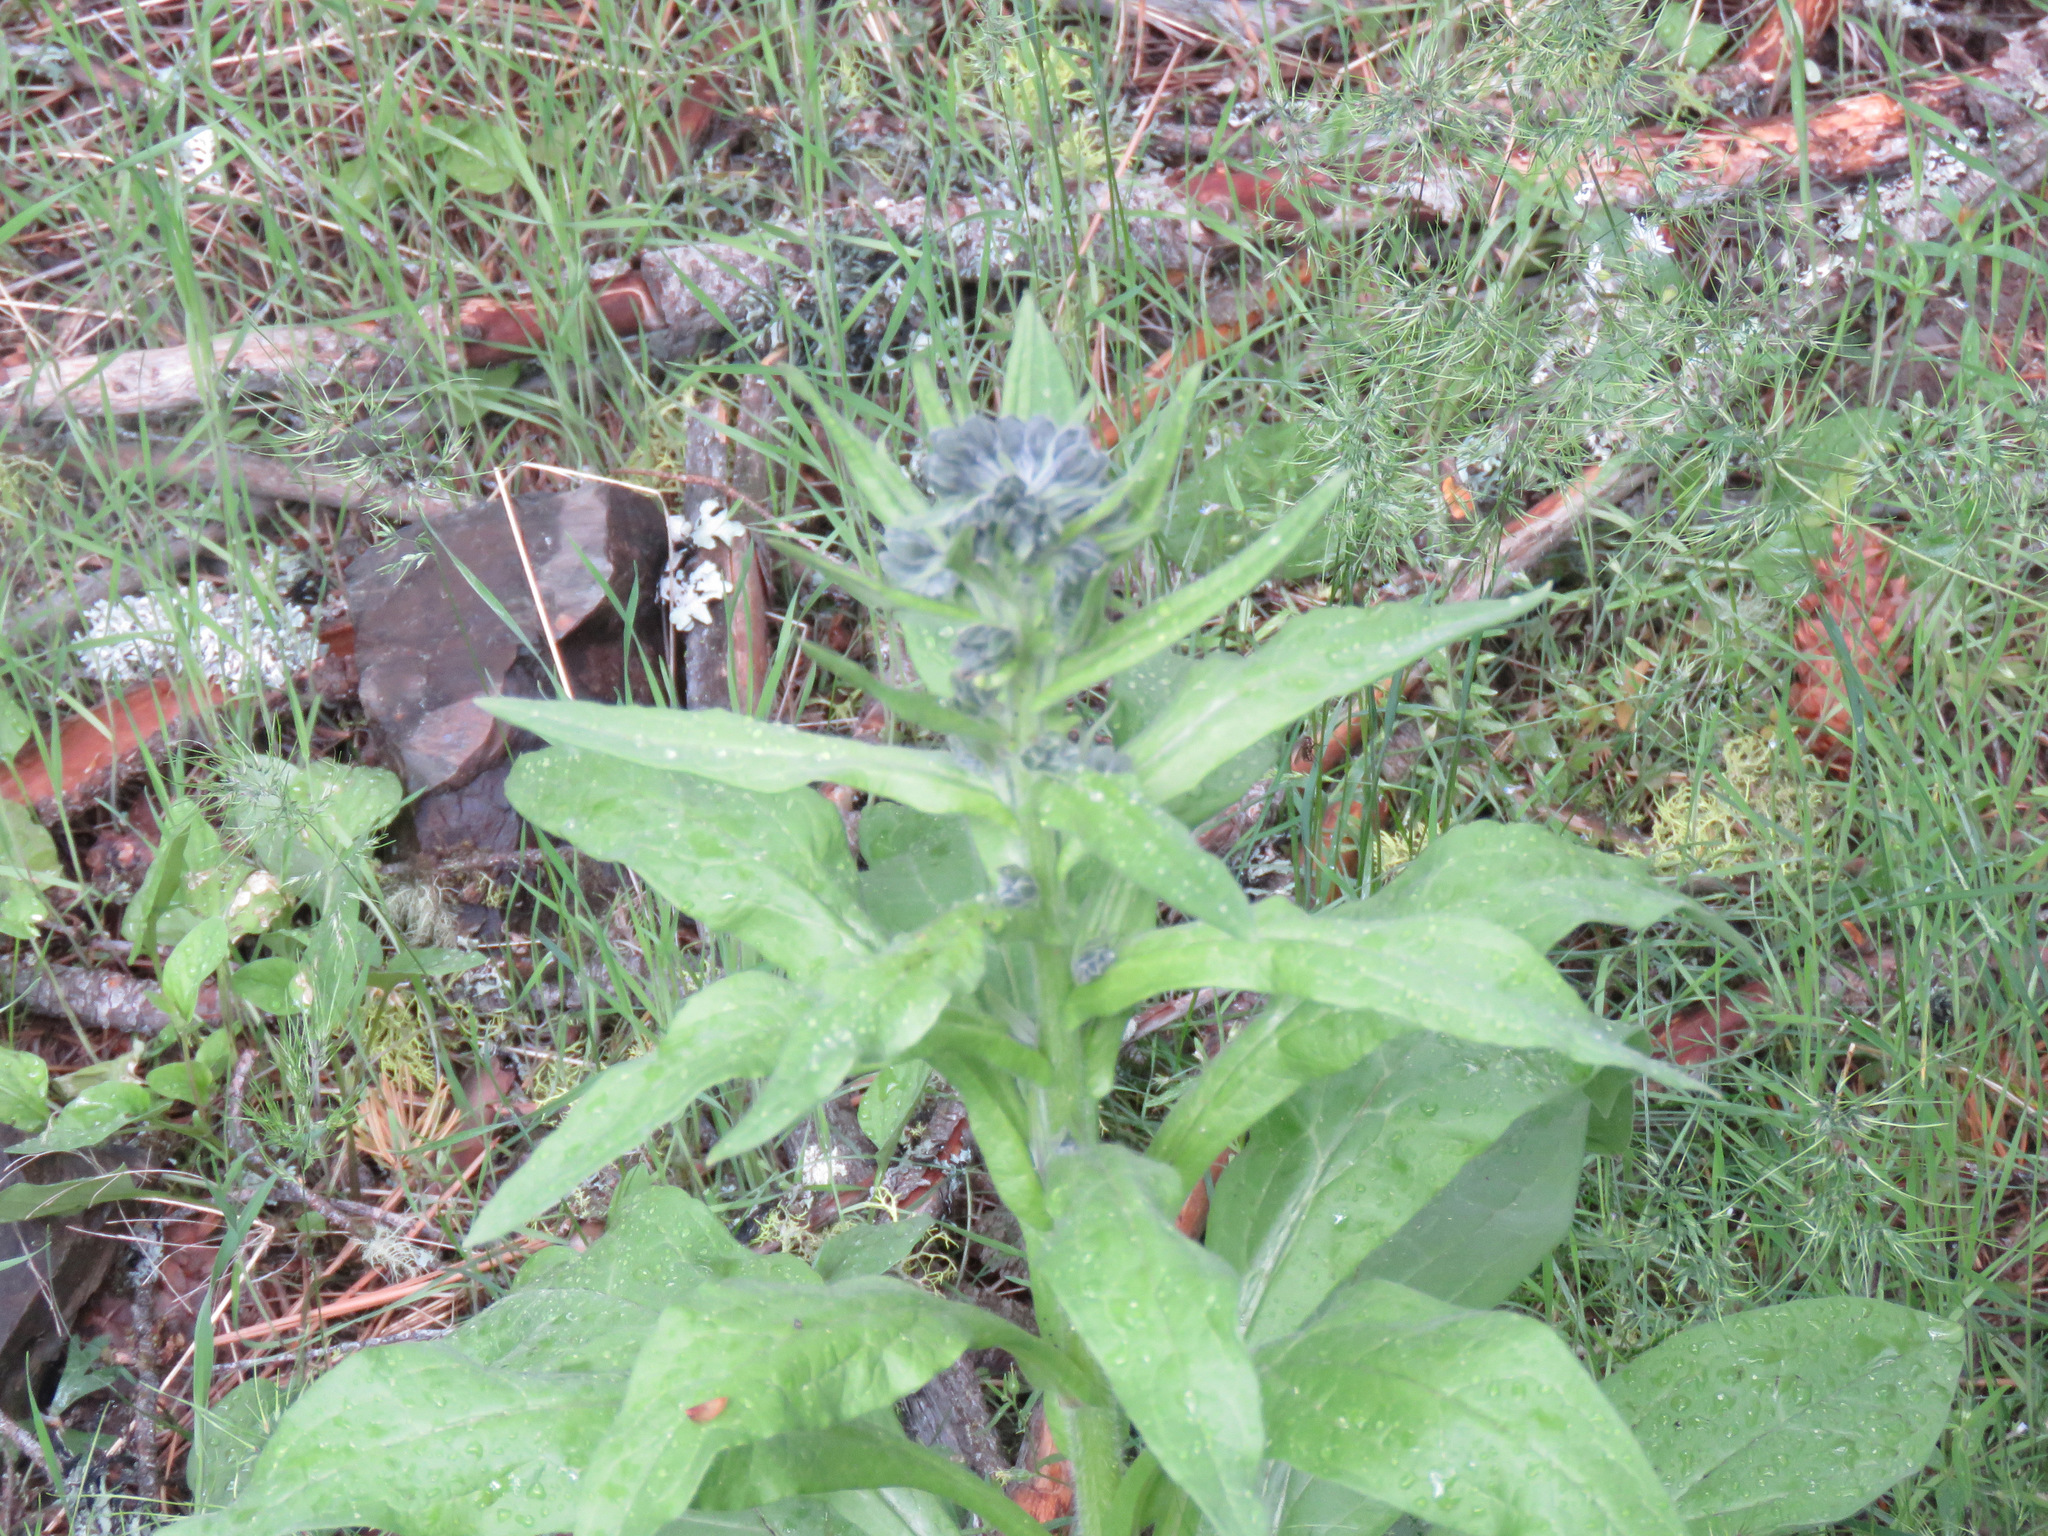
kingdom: Plantae
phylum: Tracheophyta
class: Magnoliopsida
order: Boraginales
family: Boraginaceae
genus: Cynoglossum
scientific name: Cynoglossum officinale
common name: Hound's-tongue
